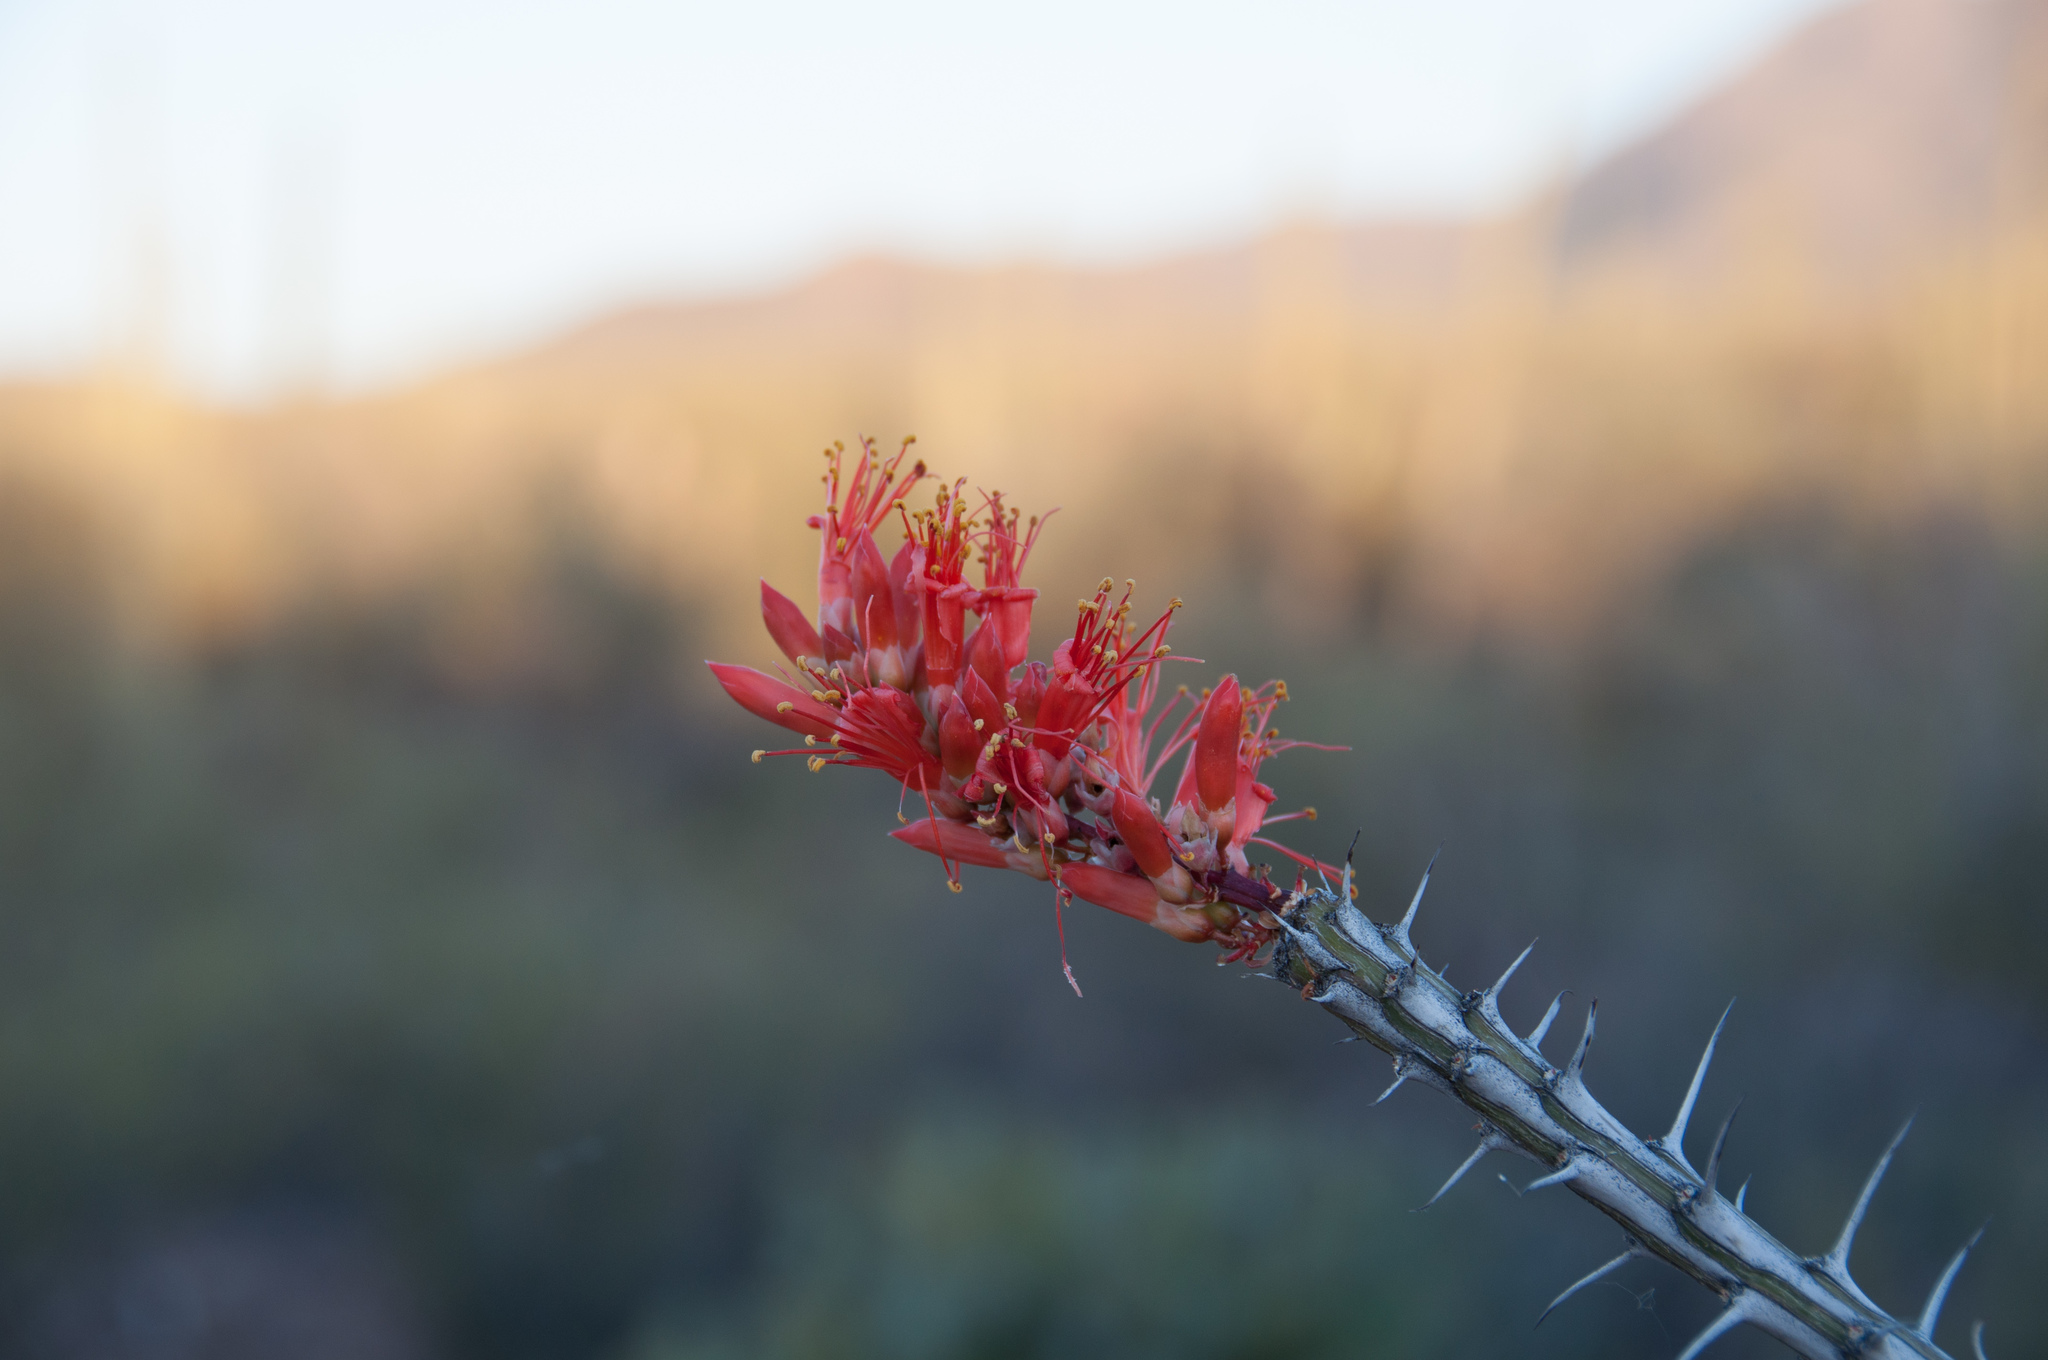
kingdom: Plantae
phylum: Tracheophyta
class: Magnoliopsida
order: Ericales
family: Fouquieriaceae
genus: Fouquieria
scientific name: Fouquieria splendens
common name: Vine-cactus
